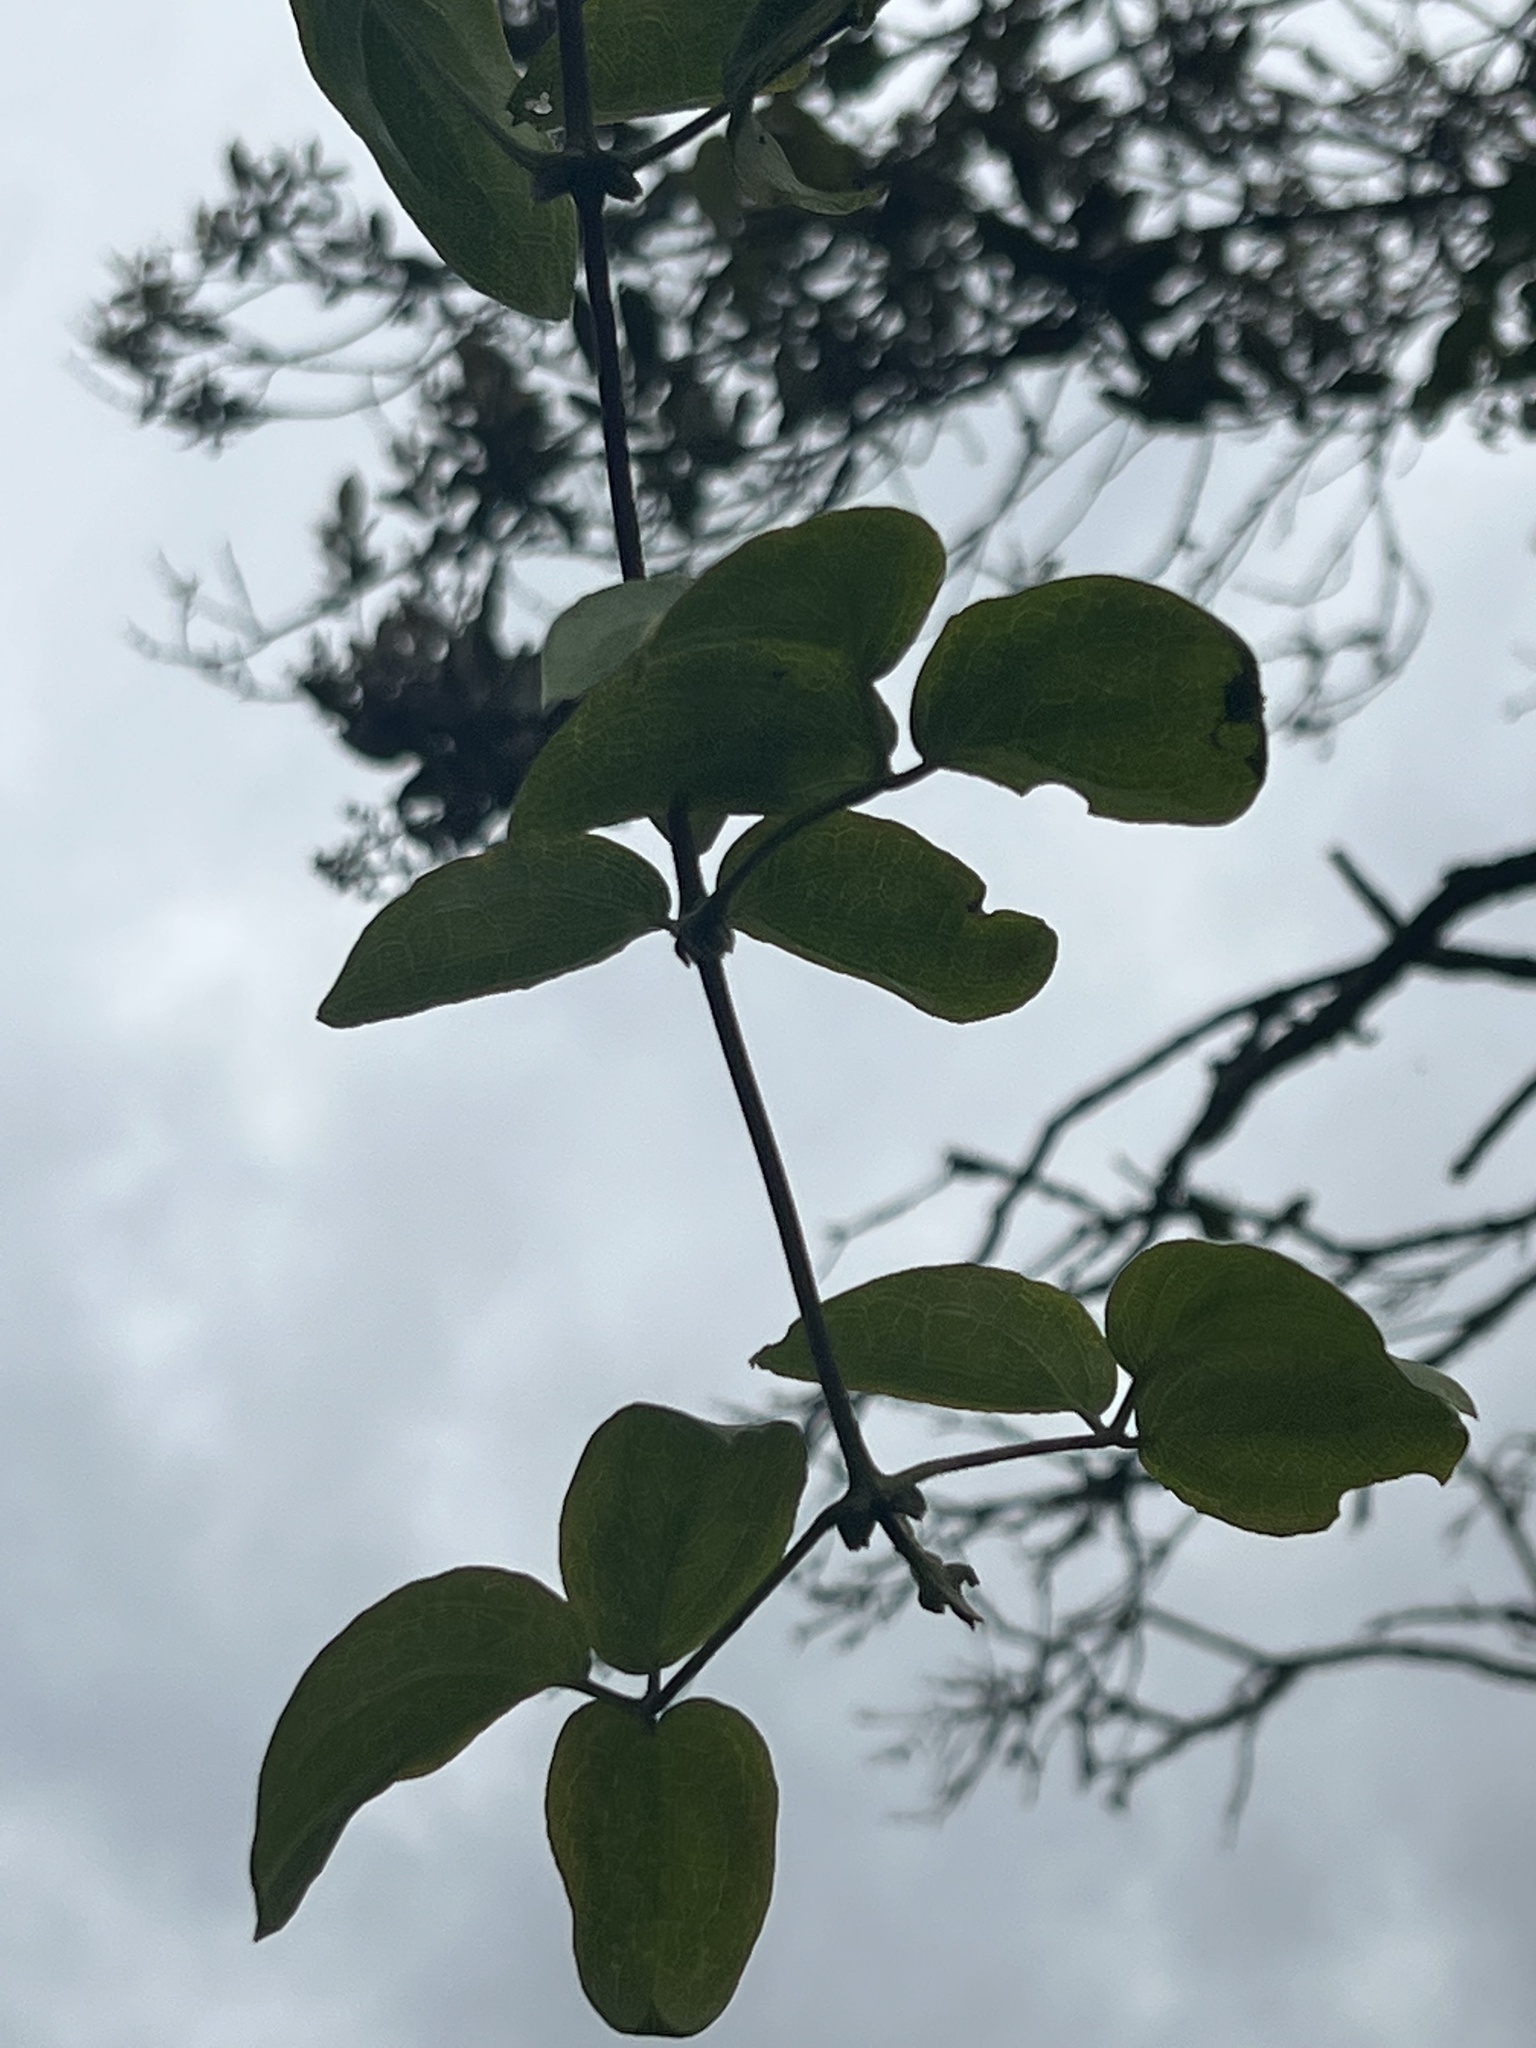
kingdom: Plantae
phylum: Tracheophyta
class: Magnoliopsida
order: Ranunculales
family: Ranunculaceae
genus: Clematis
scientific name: Clematis haenkeana
